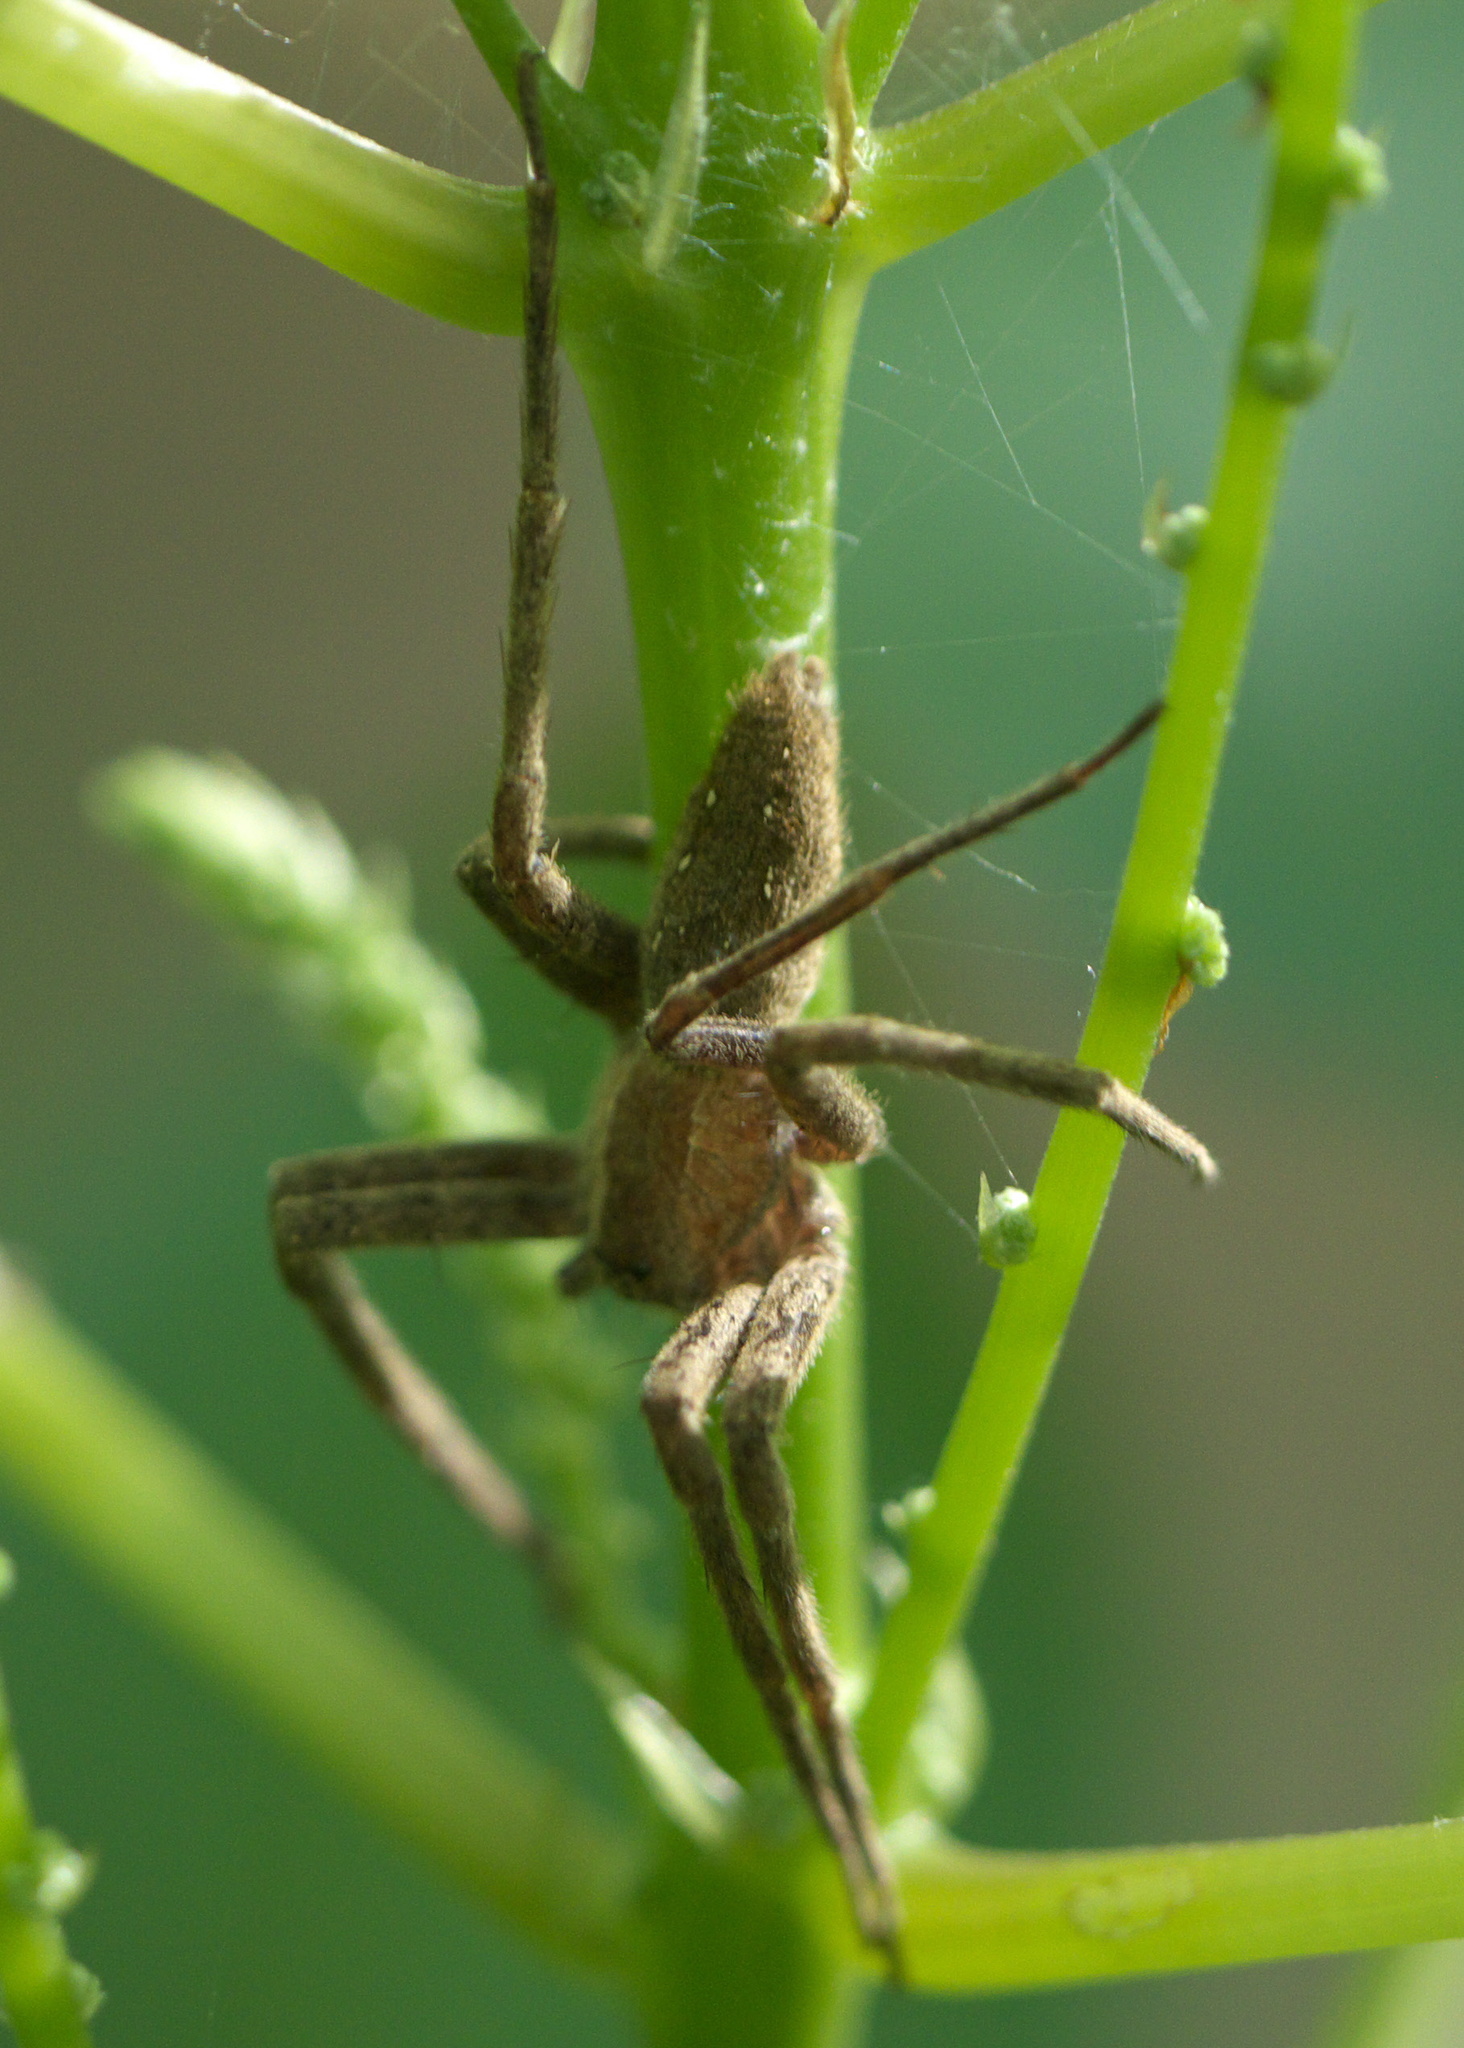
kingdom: Animalia
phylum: Arthropoda
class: Arachnida
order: Araneae
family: Pisauridae
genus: Pisaurina
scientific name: Pisaurina mira
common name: American nursery web spider
